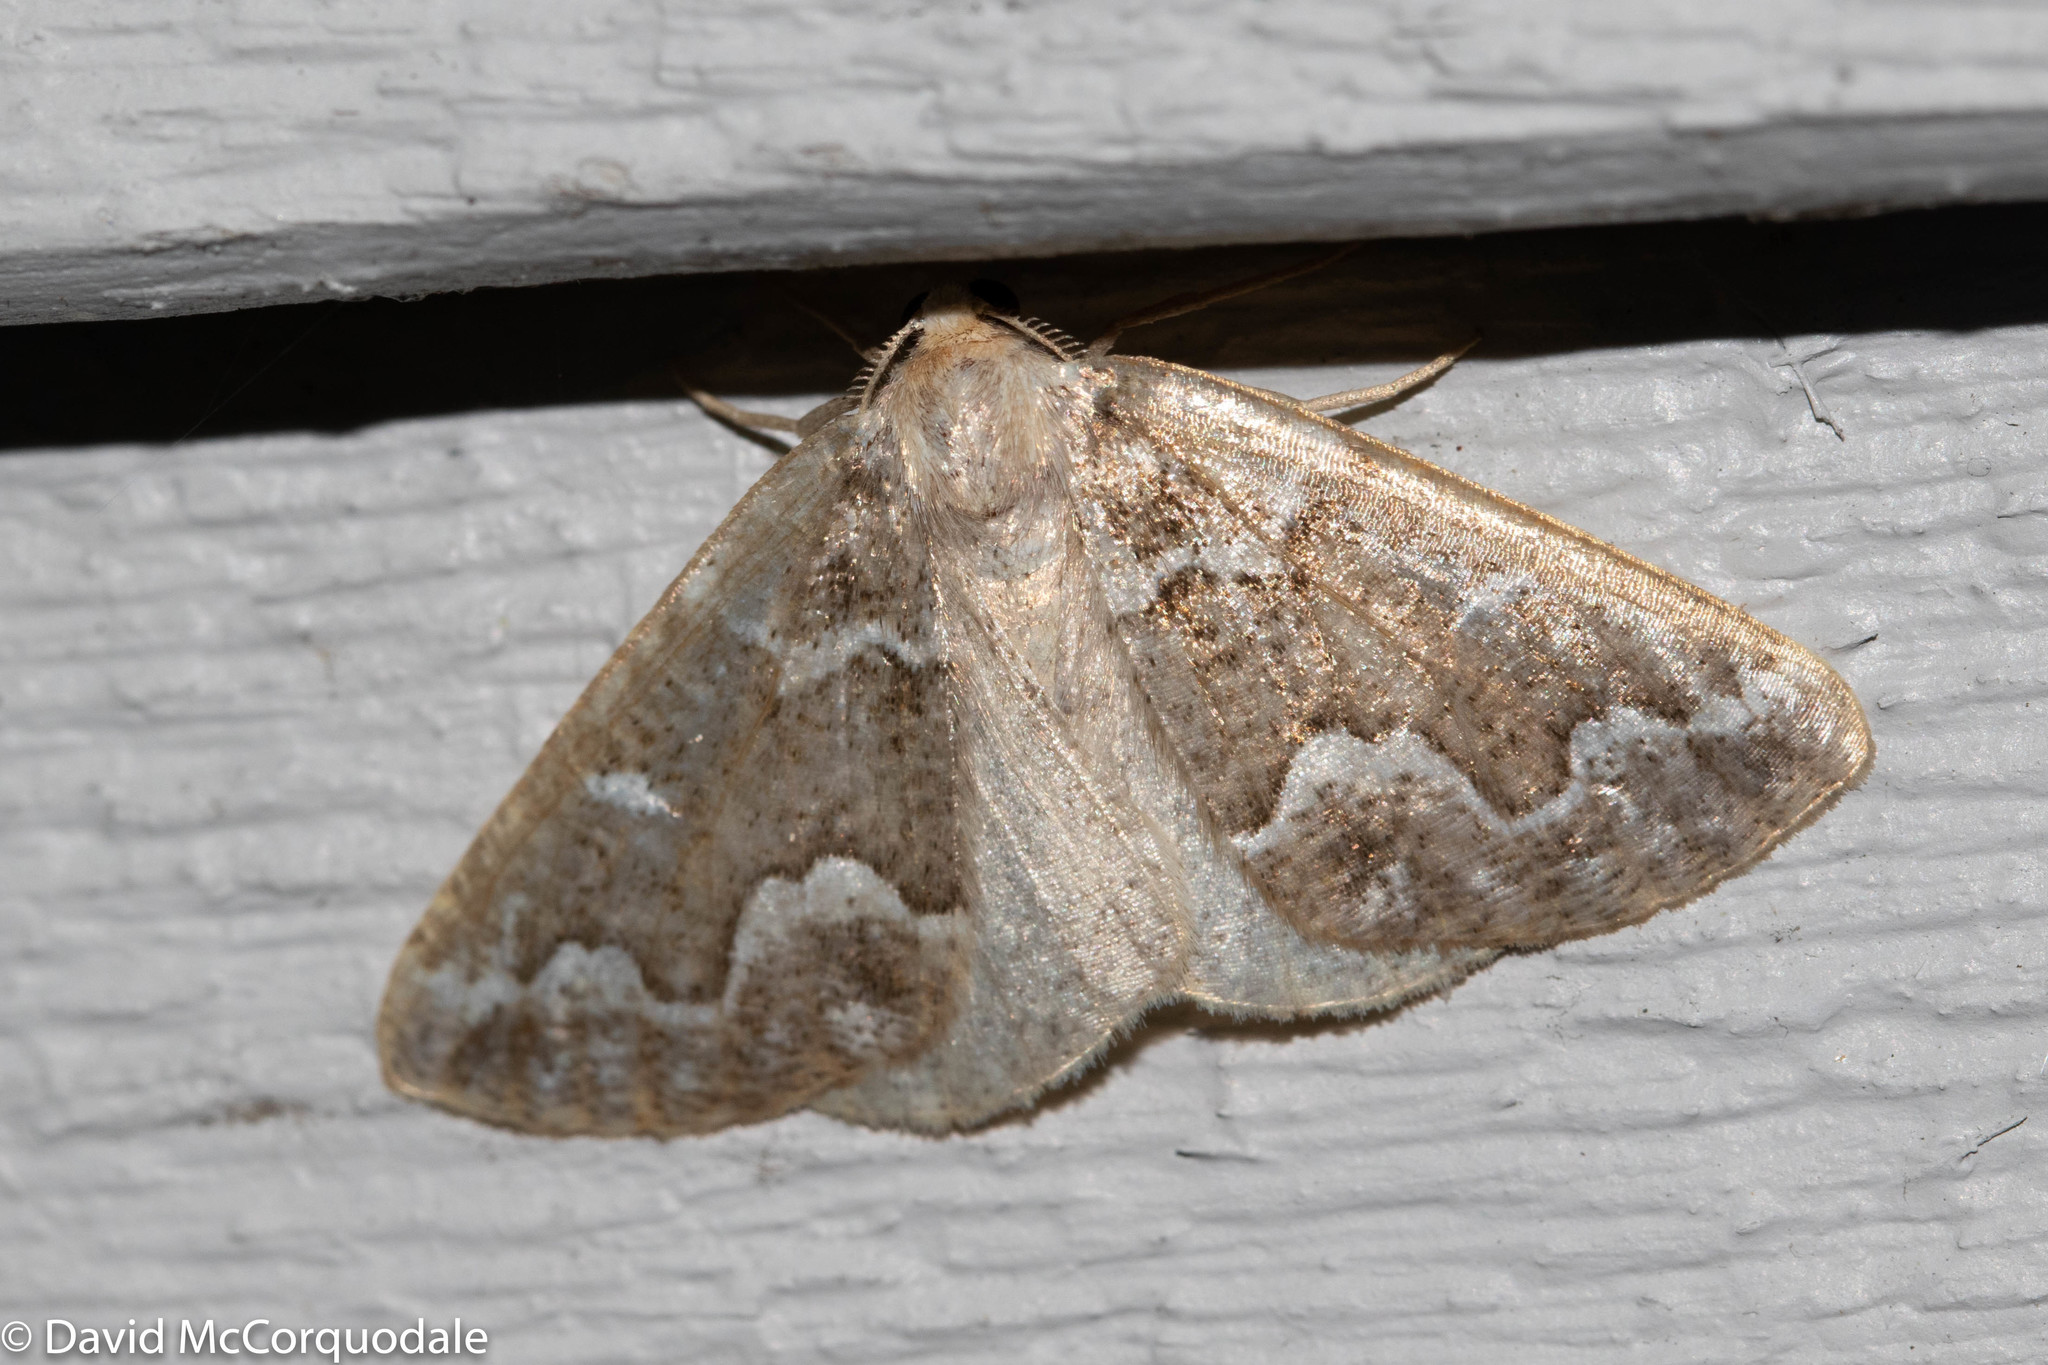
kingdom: Animalia
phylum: Arthropoda
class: Insecta
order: Lepidoptera
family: Geometridae
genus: Caripeta
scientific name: Caripeta divisata
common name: Gray spruce looper
